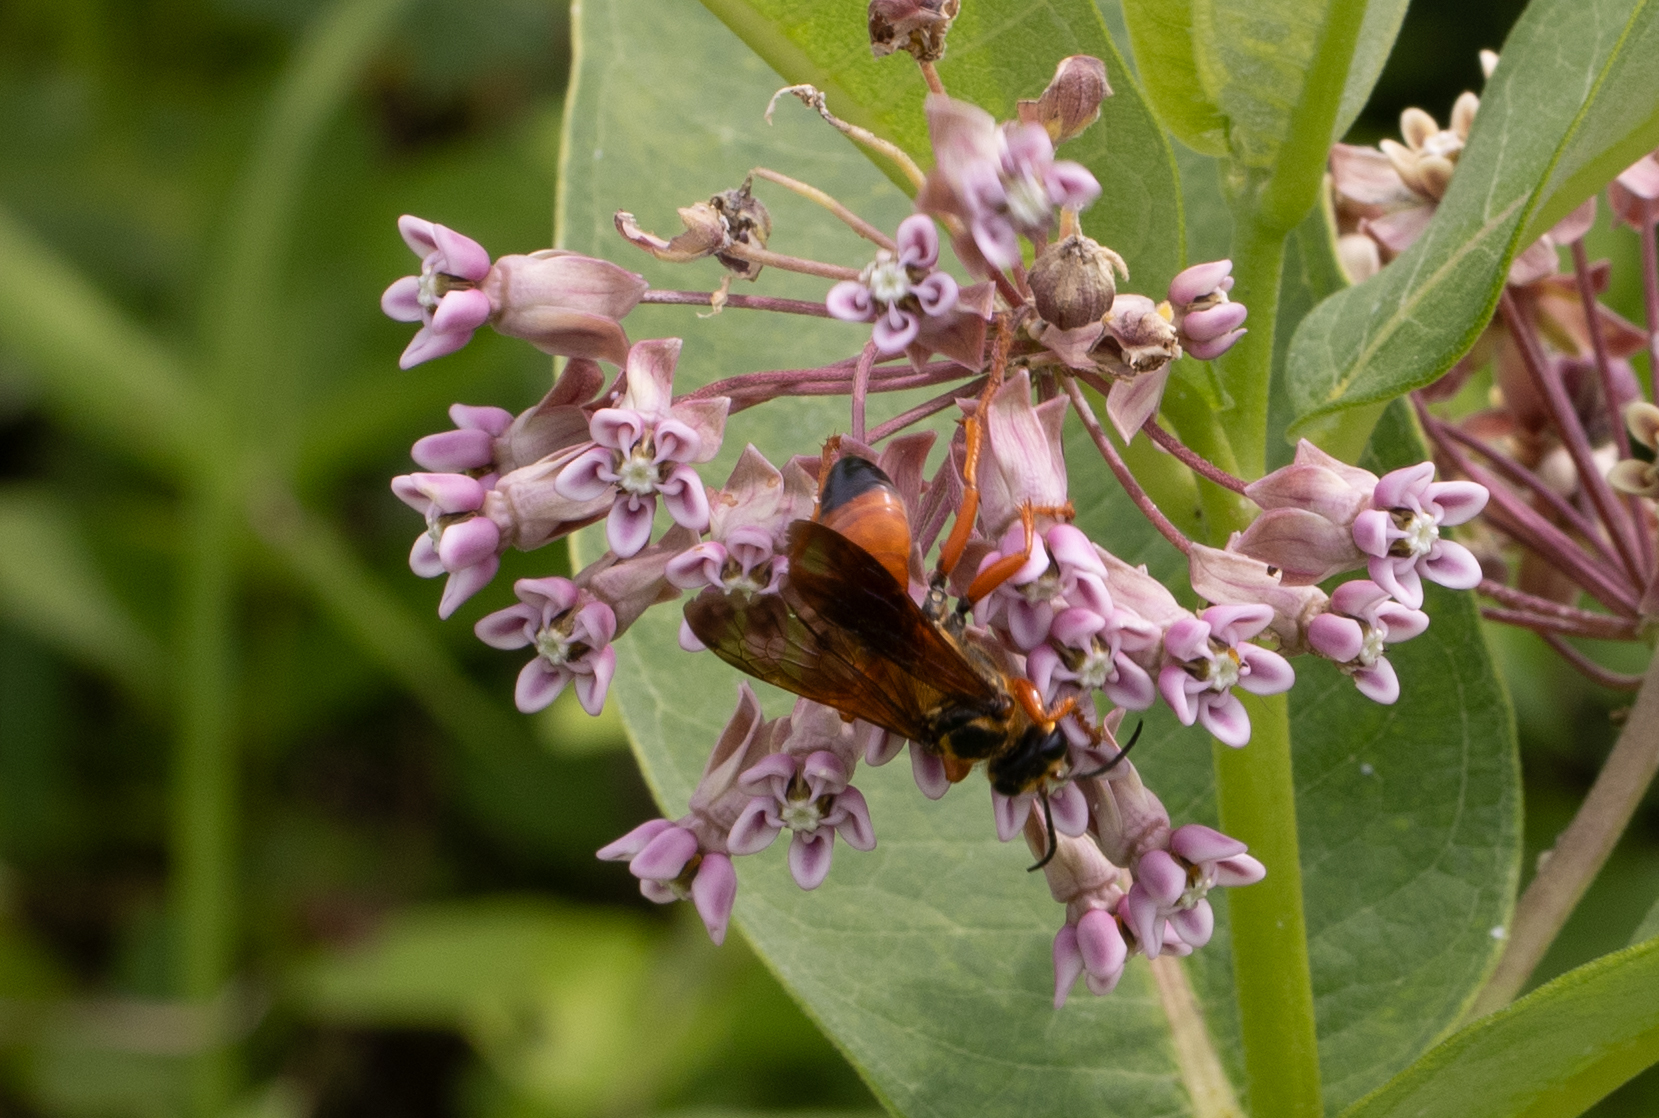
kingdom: Animalia
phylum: Arthropoda
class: Insecta
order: Hymenoptera
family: Sphecidae
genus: Sphex
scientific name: Sphex ichneumoneus
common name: Great golden digger wasp
